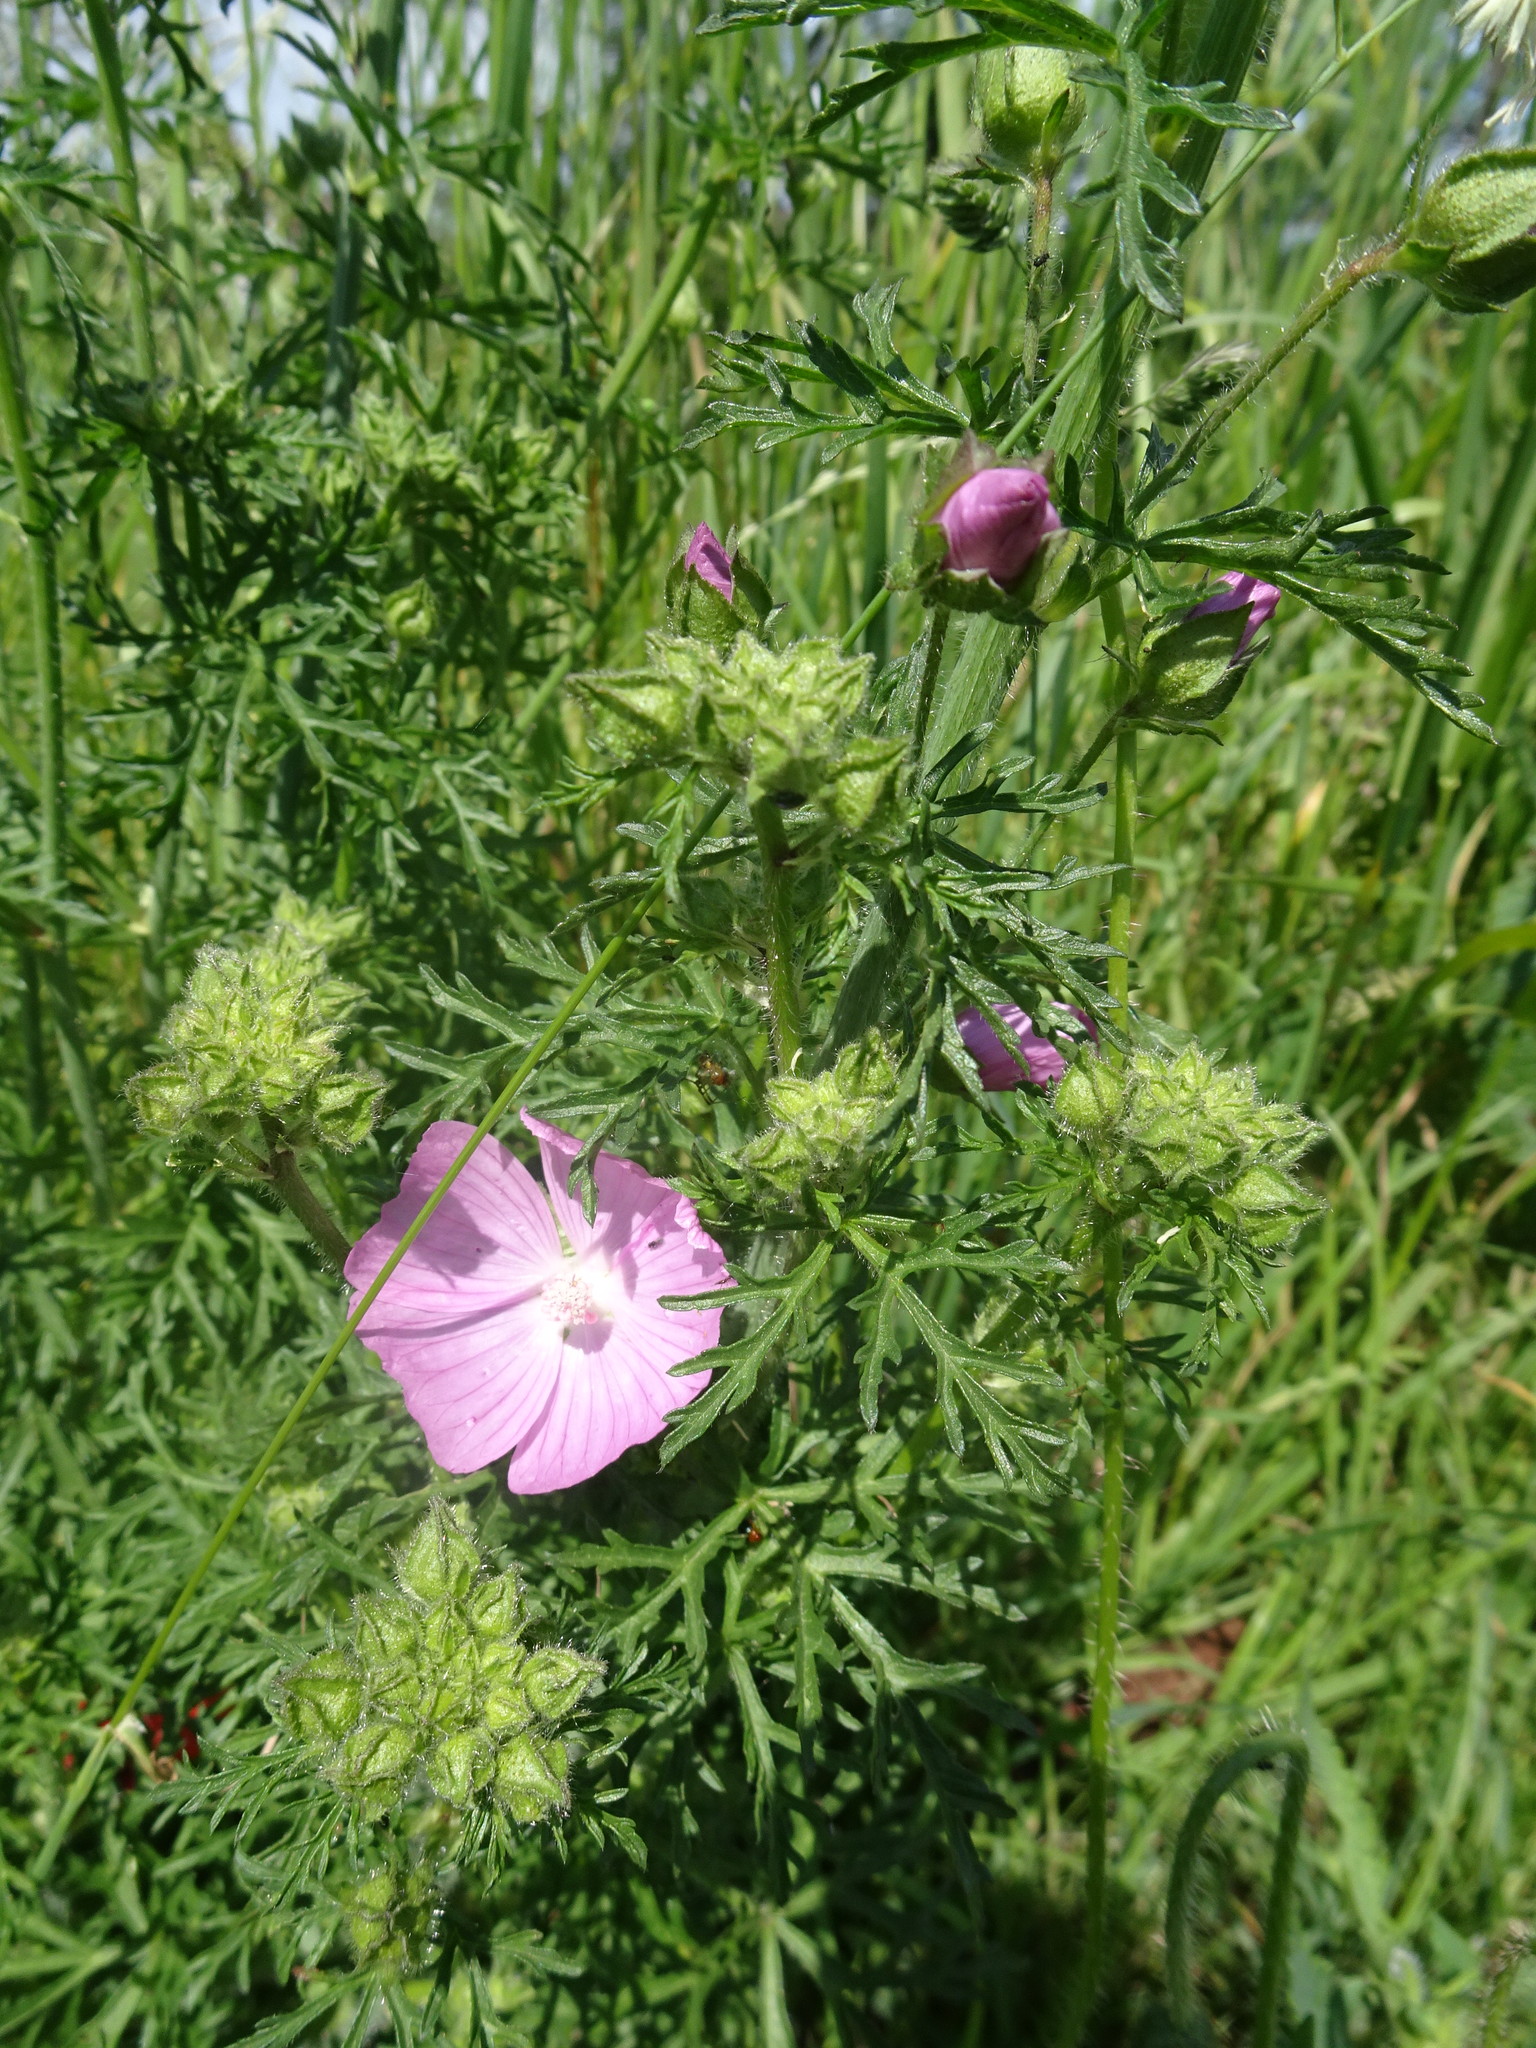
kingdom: Plantae
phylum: Tracheophyta
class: Magnoliopsida
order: Malvales
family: Malvaceae
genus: Malva
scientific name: Malva moschata
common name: Musk mallow
